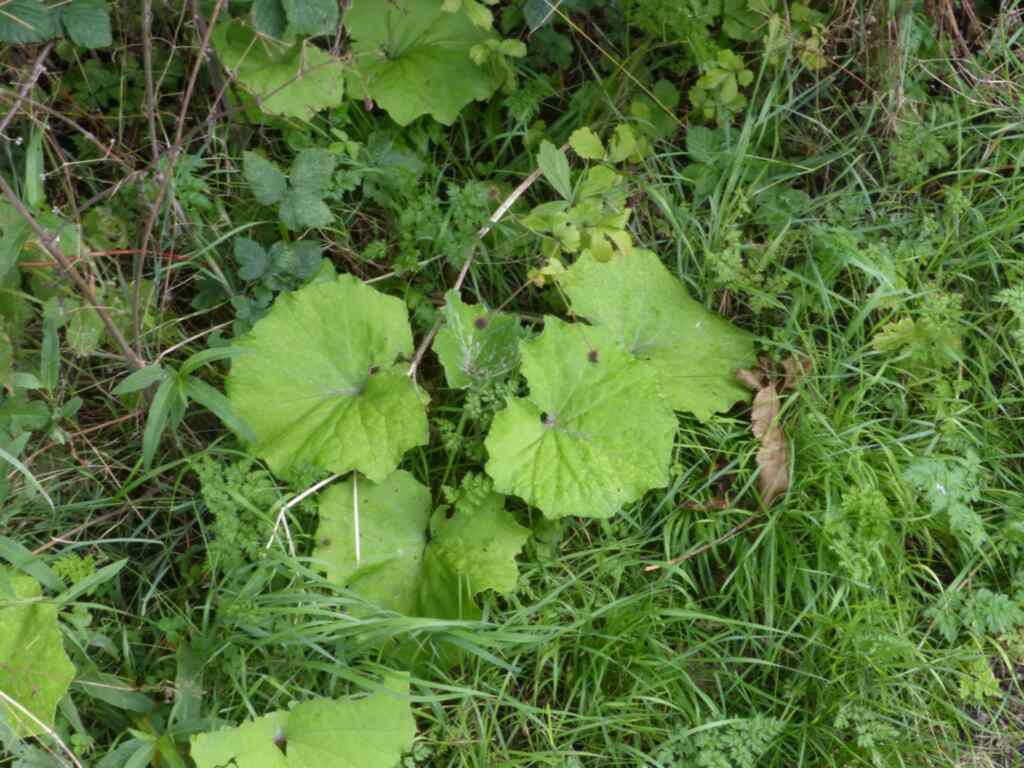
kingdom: Plantae
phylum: Tracheophyta
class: Magnoliopsida
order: Asterales
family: Asteraceae
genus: Tussilago
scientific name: Tussilago farfara
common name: Coltsfoot
